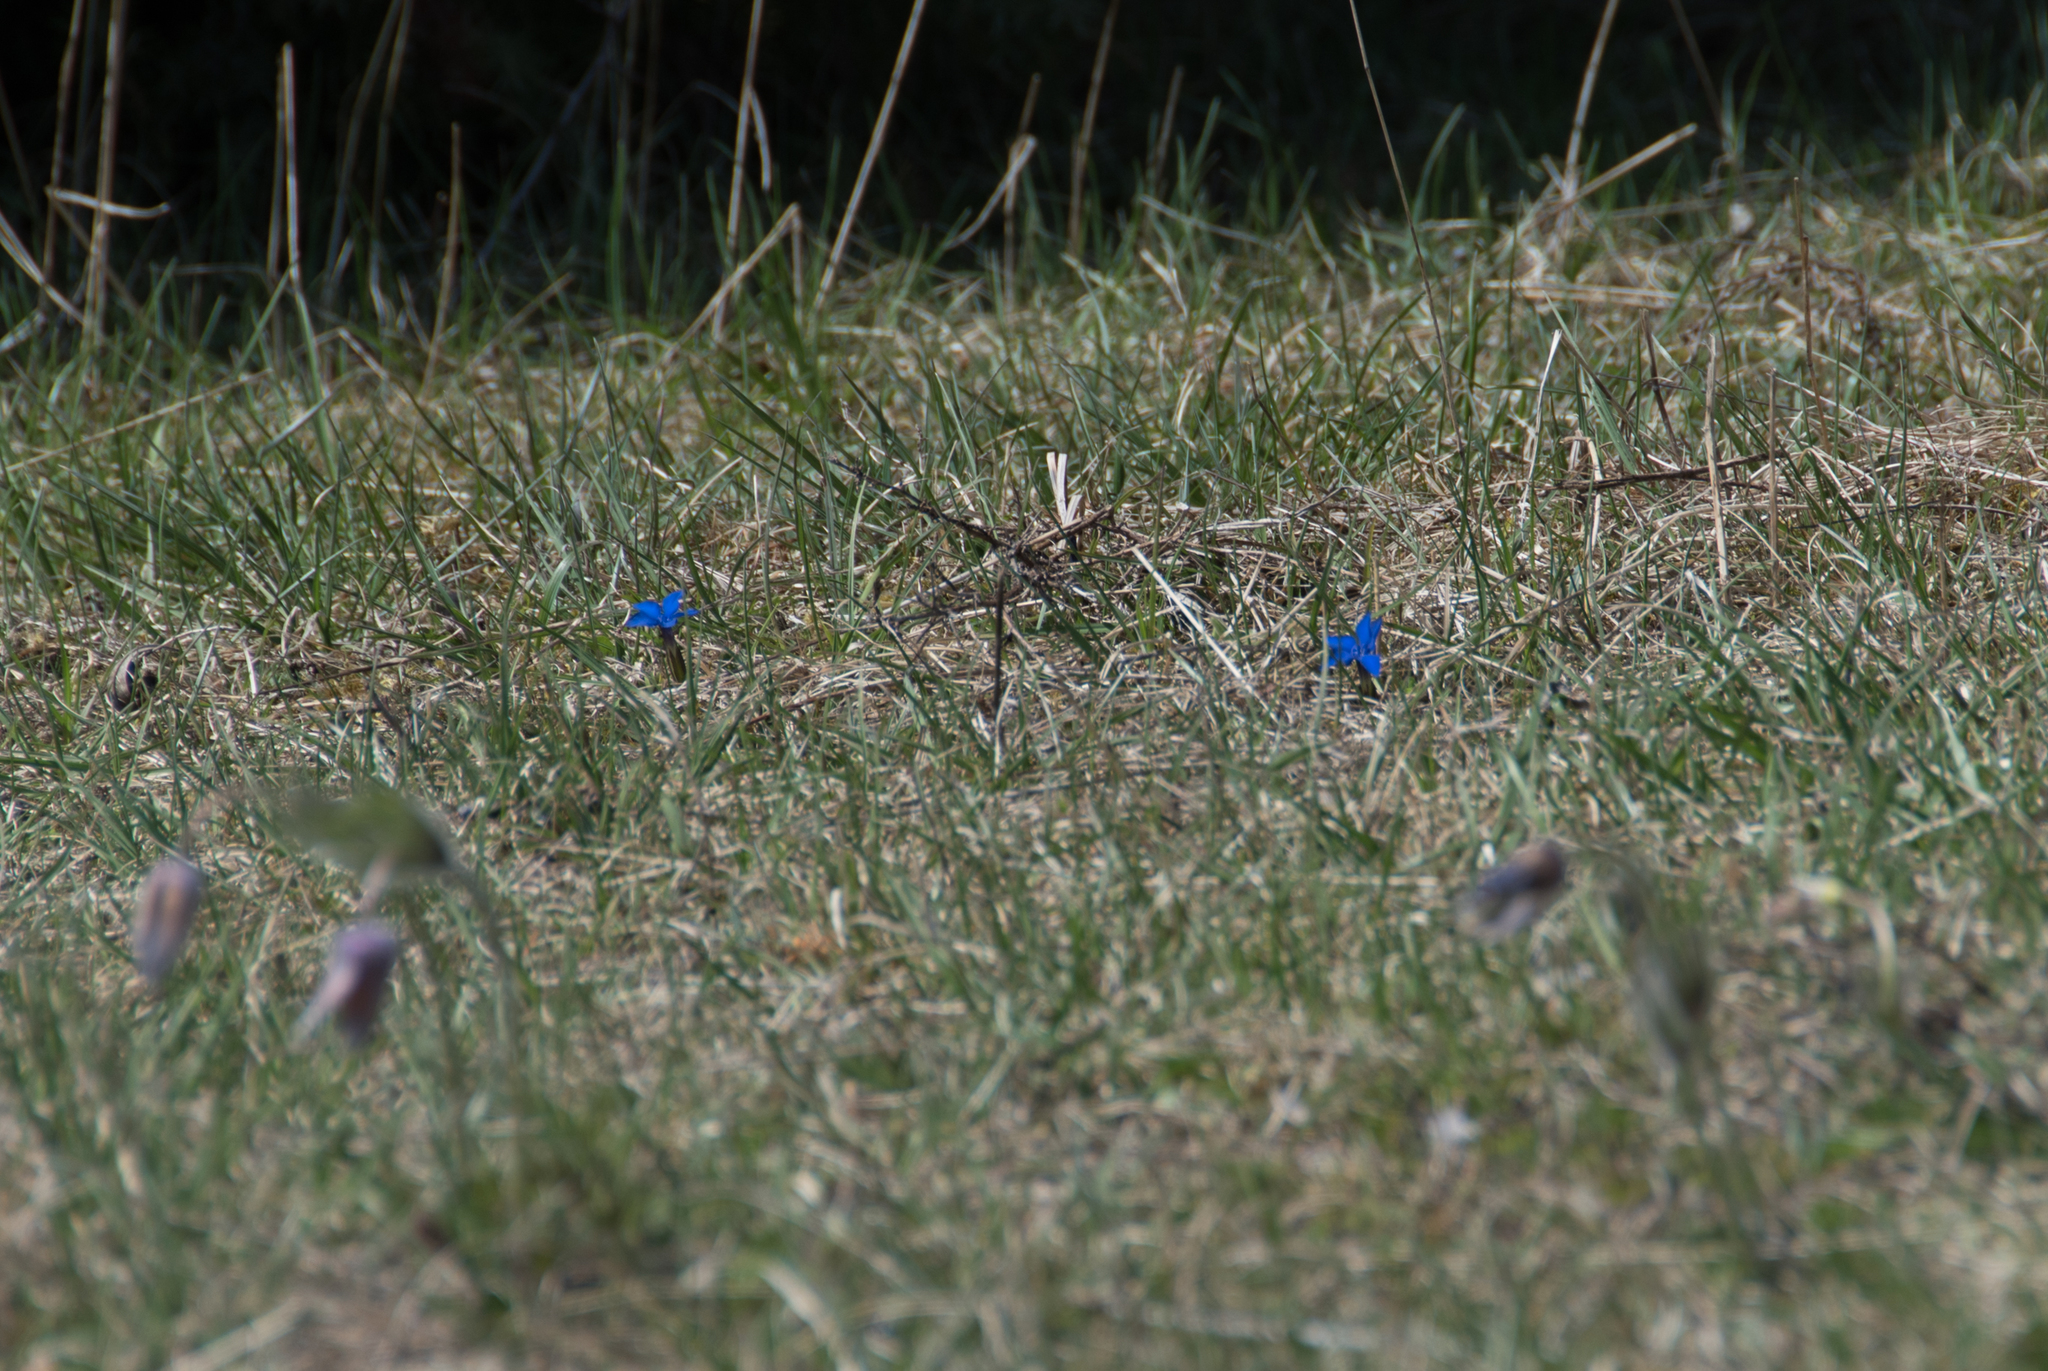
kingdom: Plantae
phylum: Tracheophyta
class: Magnoliopsida
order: Gentianales
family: Gentianaceae
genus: Gentiana
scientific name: Gentiana verna
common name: Spring gentian
